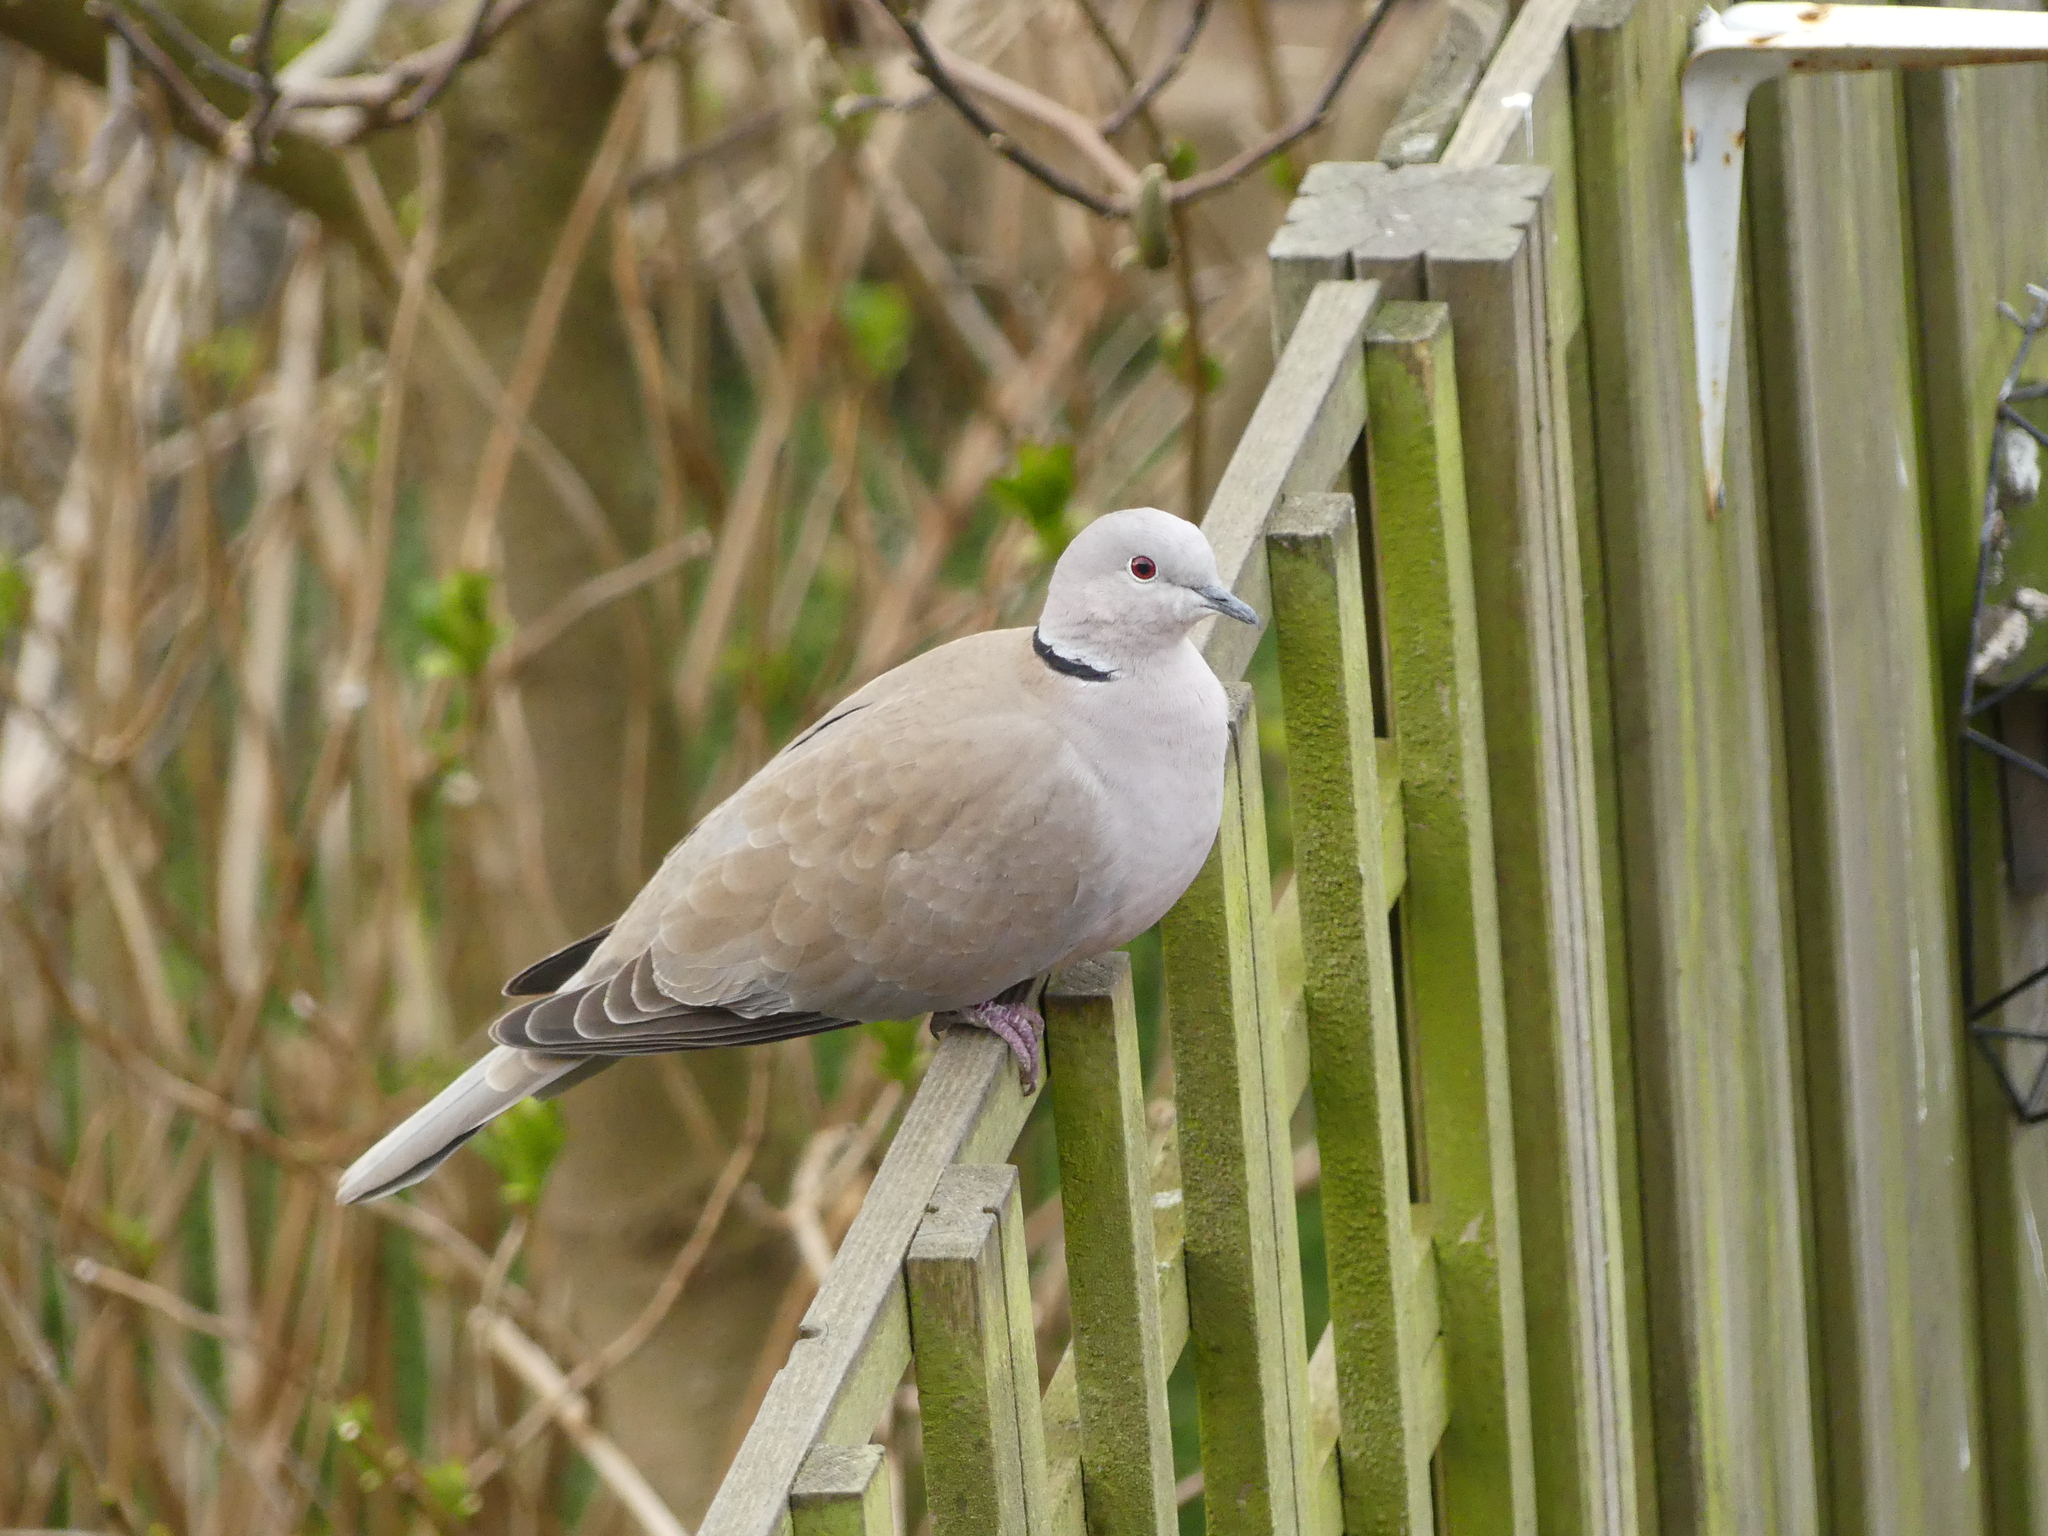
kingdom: Animalia
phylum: Chordata
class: Aves
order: Columbiformes
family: Columbidae
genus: Streptopelia
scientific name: Streptopelia decaocto
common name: Eurasian collared dove
